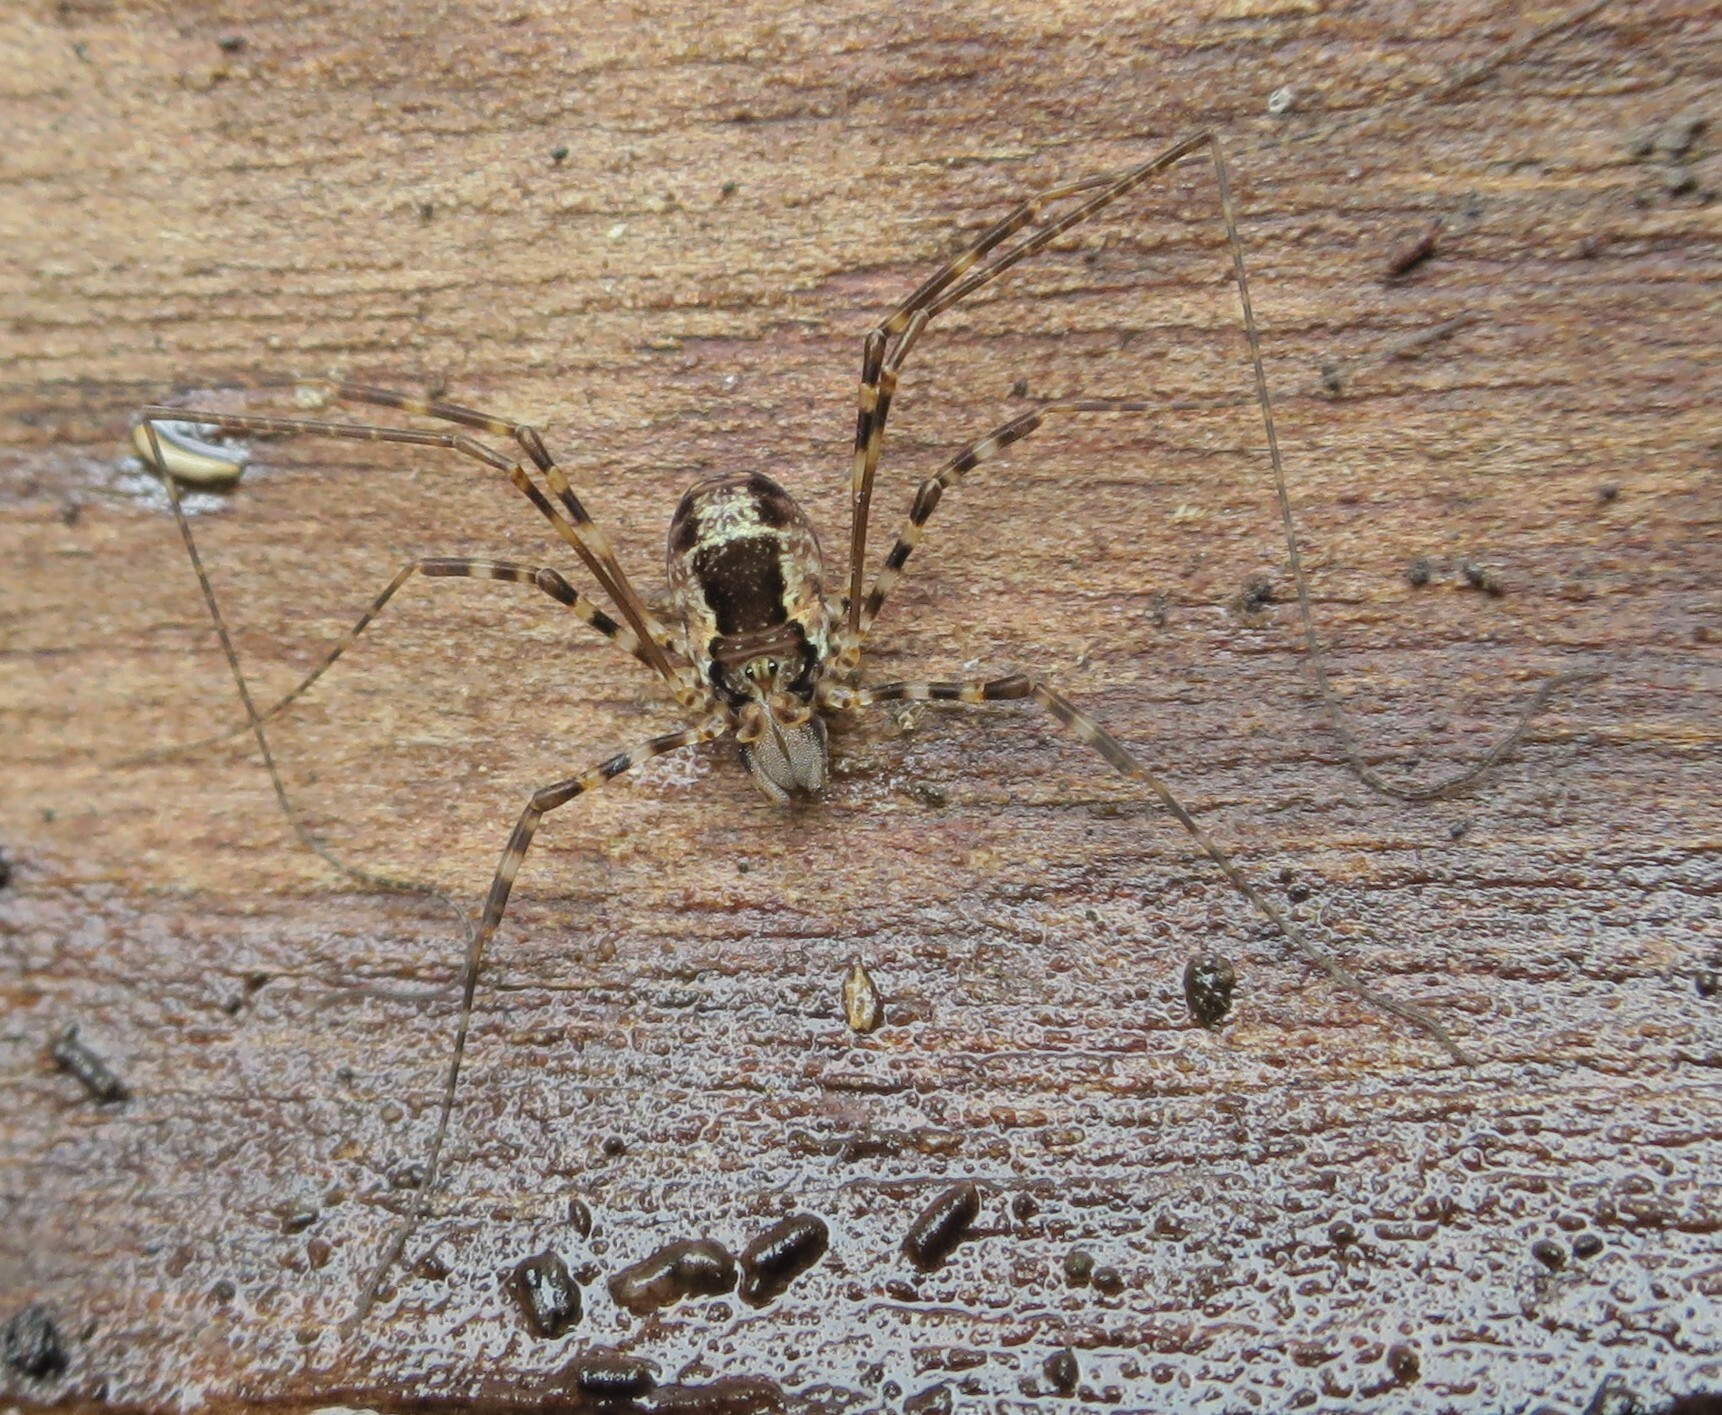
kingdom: Animalia
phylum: Arthropoda
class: Arachnida
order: Opiliones
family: Neopilionidae
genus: Megalopsalis
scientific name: Megalopsalis triascuta
